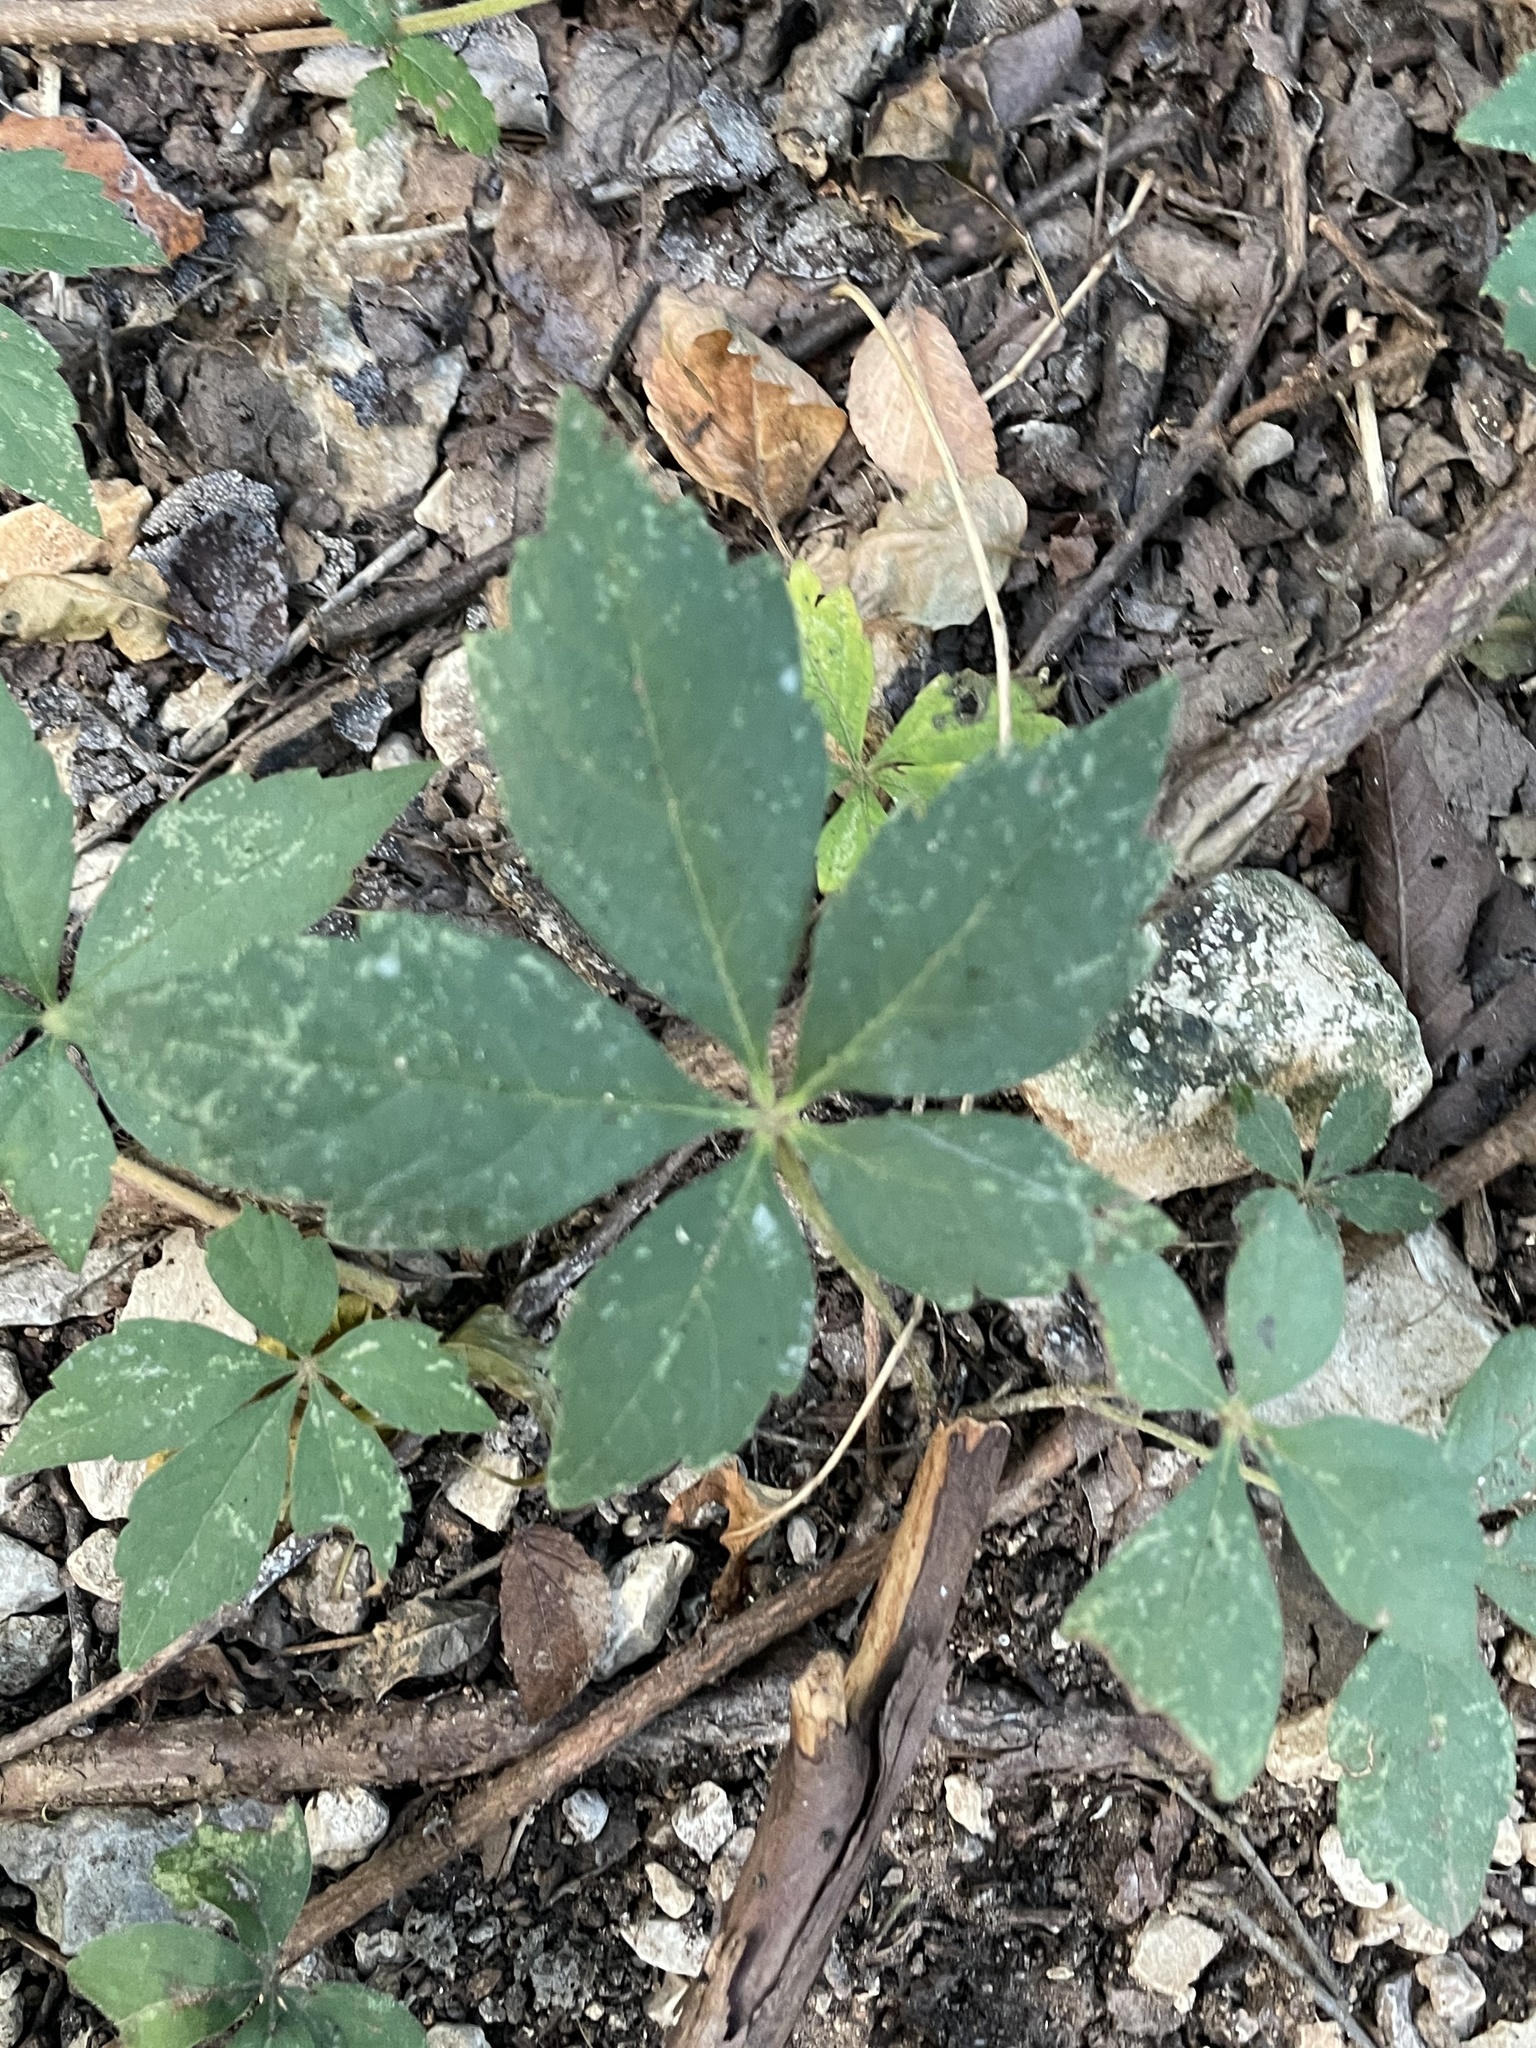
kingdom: Plantae
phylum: Tracheophyta
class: Magnoliopsida
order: Vitales
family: Vitaceae
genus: Parthenocissus
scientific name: Parthenocissus quinquefolia
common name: Virginia-creeper
